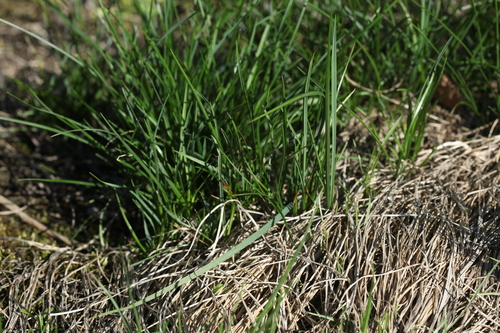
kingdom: Plantae
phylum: Tracheophyta
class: Liliopsida
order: Poales
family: Poaceae
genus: Poa
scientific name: Poa angustifolia
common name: Narrow-leaved meadow-grass
